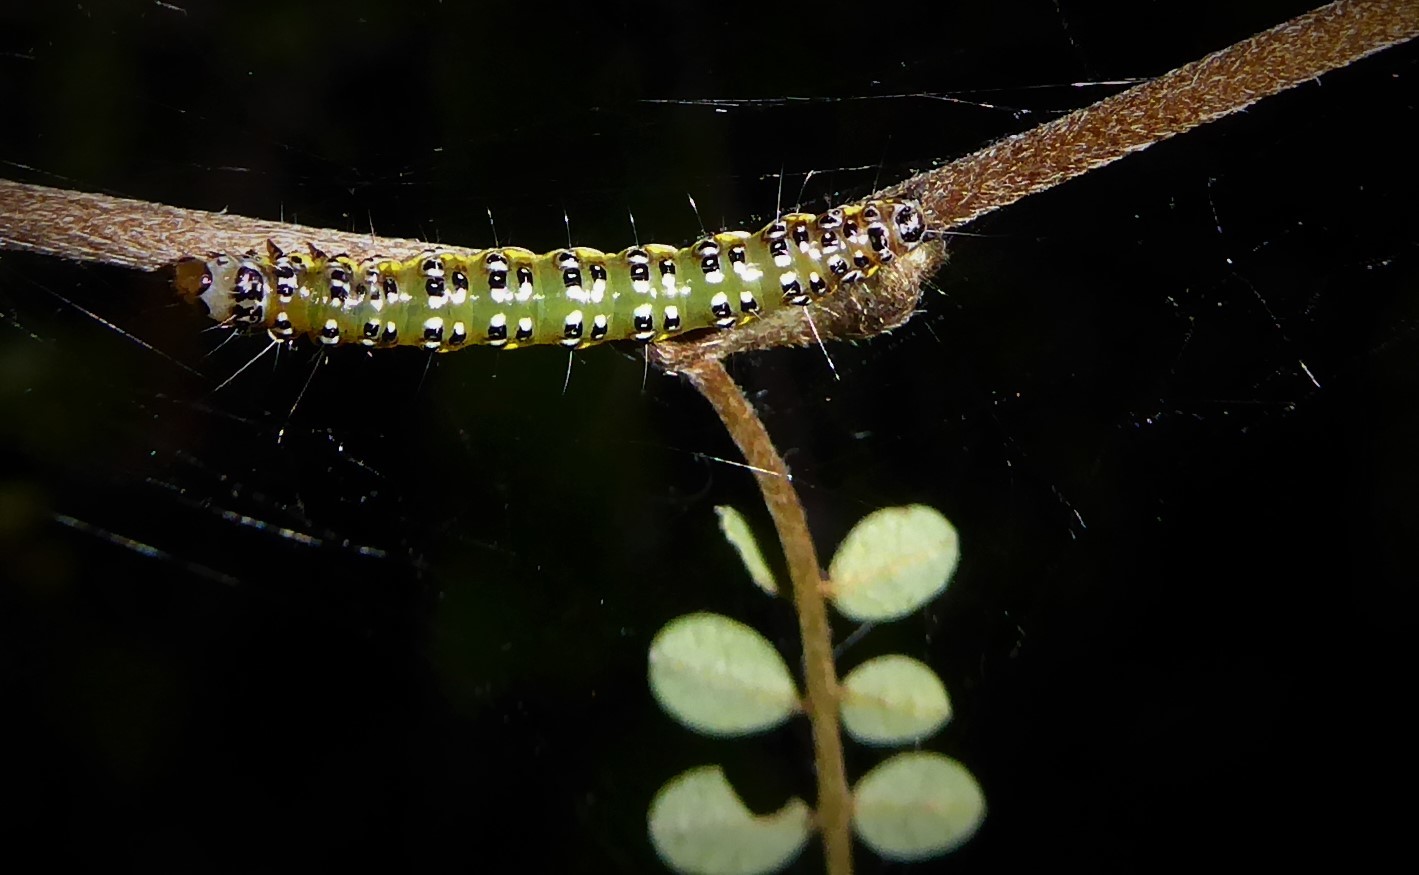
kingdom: Animalia
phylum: Arthropoda
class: Insecta
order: Lepidoptera
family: Crambidae
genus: Uresiphita
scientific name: Uresiphita
